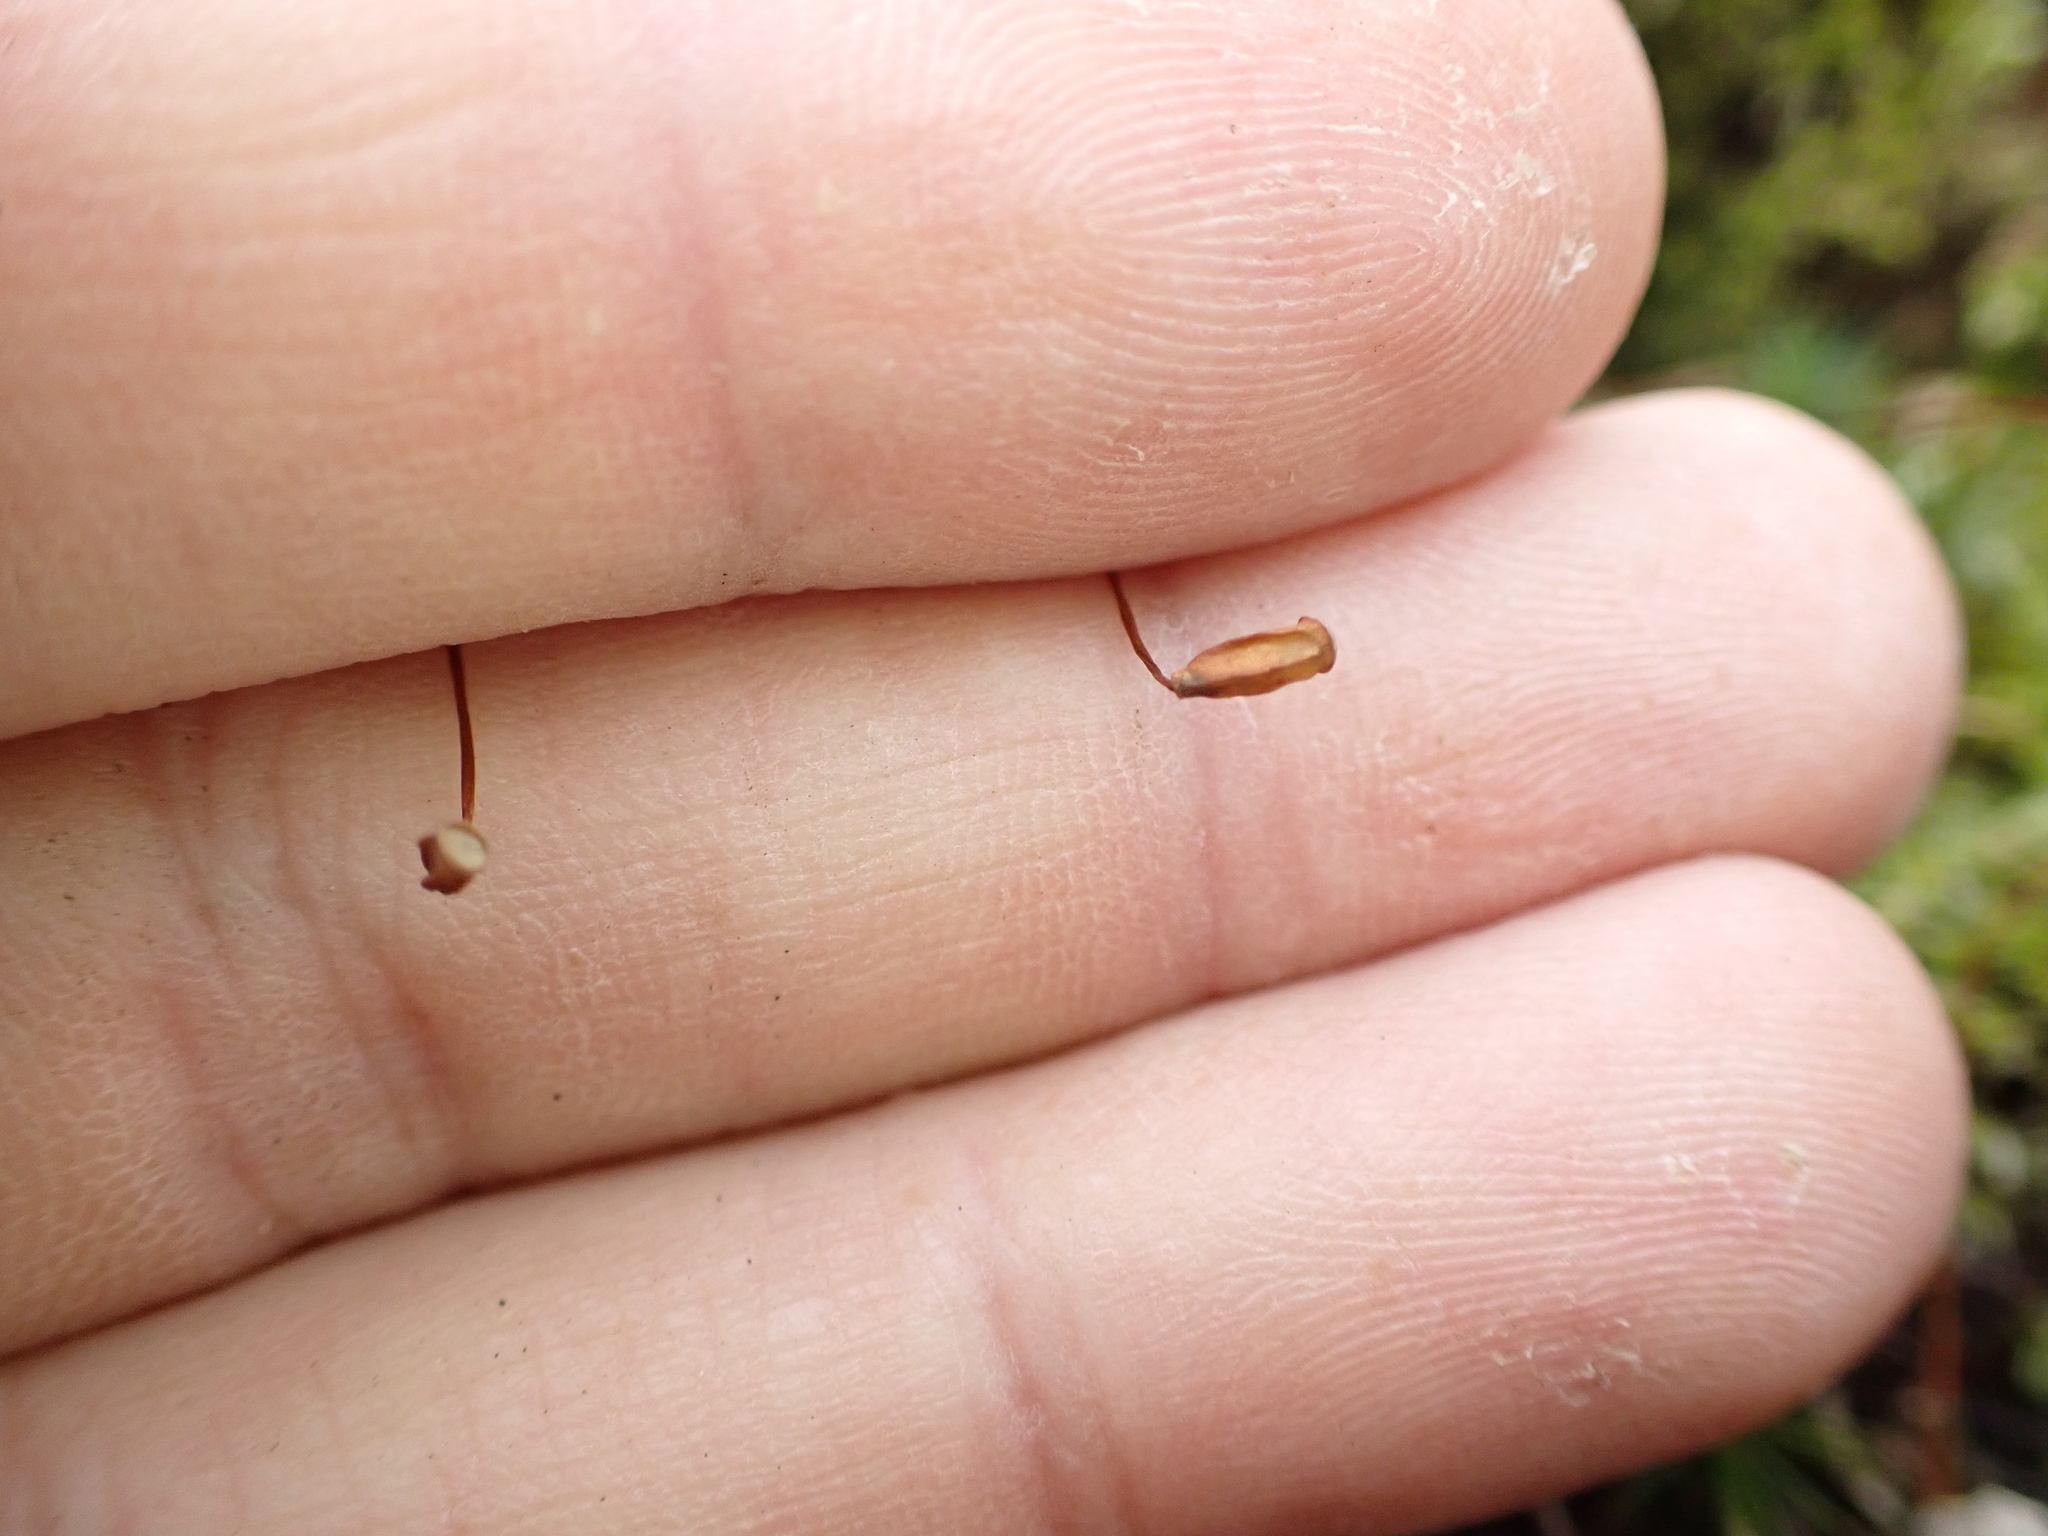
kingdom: Plantae
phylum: Bryophyta
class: Polytrichopsida
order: Polytrichales
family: Polytrichaceae
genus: Polytrichum
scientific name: Polytrichum ohioense
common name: Ohio polytrichum moss
